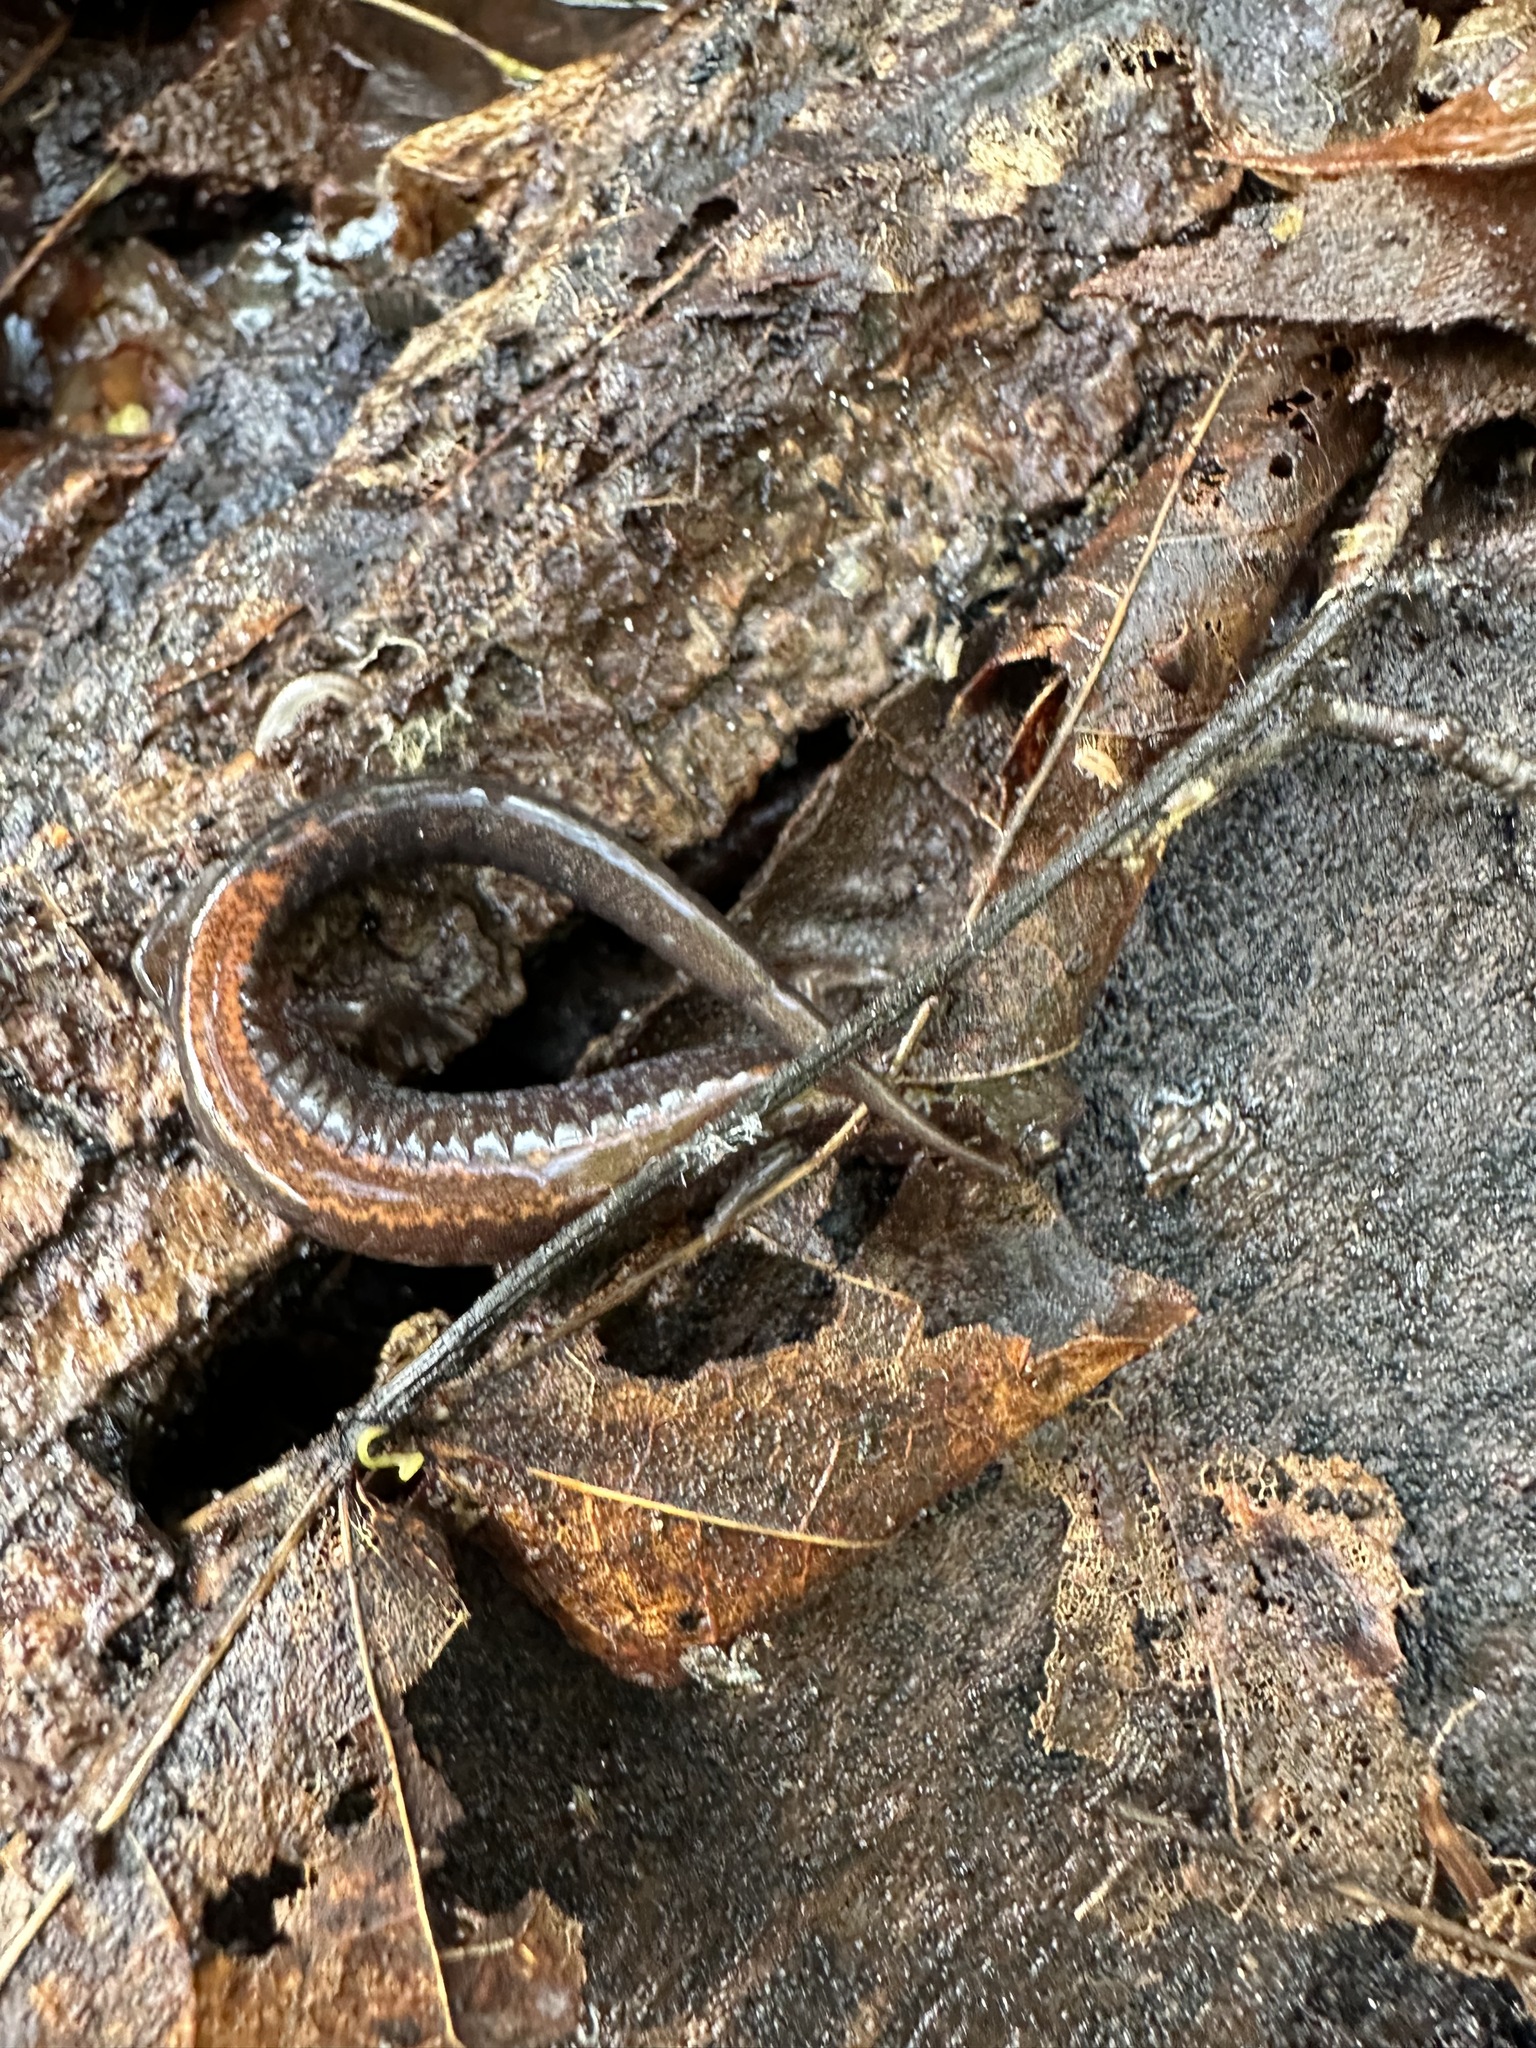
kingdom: Animalia
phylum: Chordata
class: Amphibia
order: Caudata
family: Plethodontidae
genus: Plethodon
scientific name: Plethodon cinereus
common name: Redback salamander
